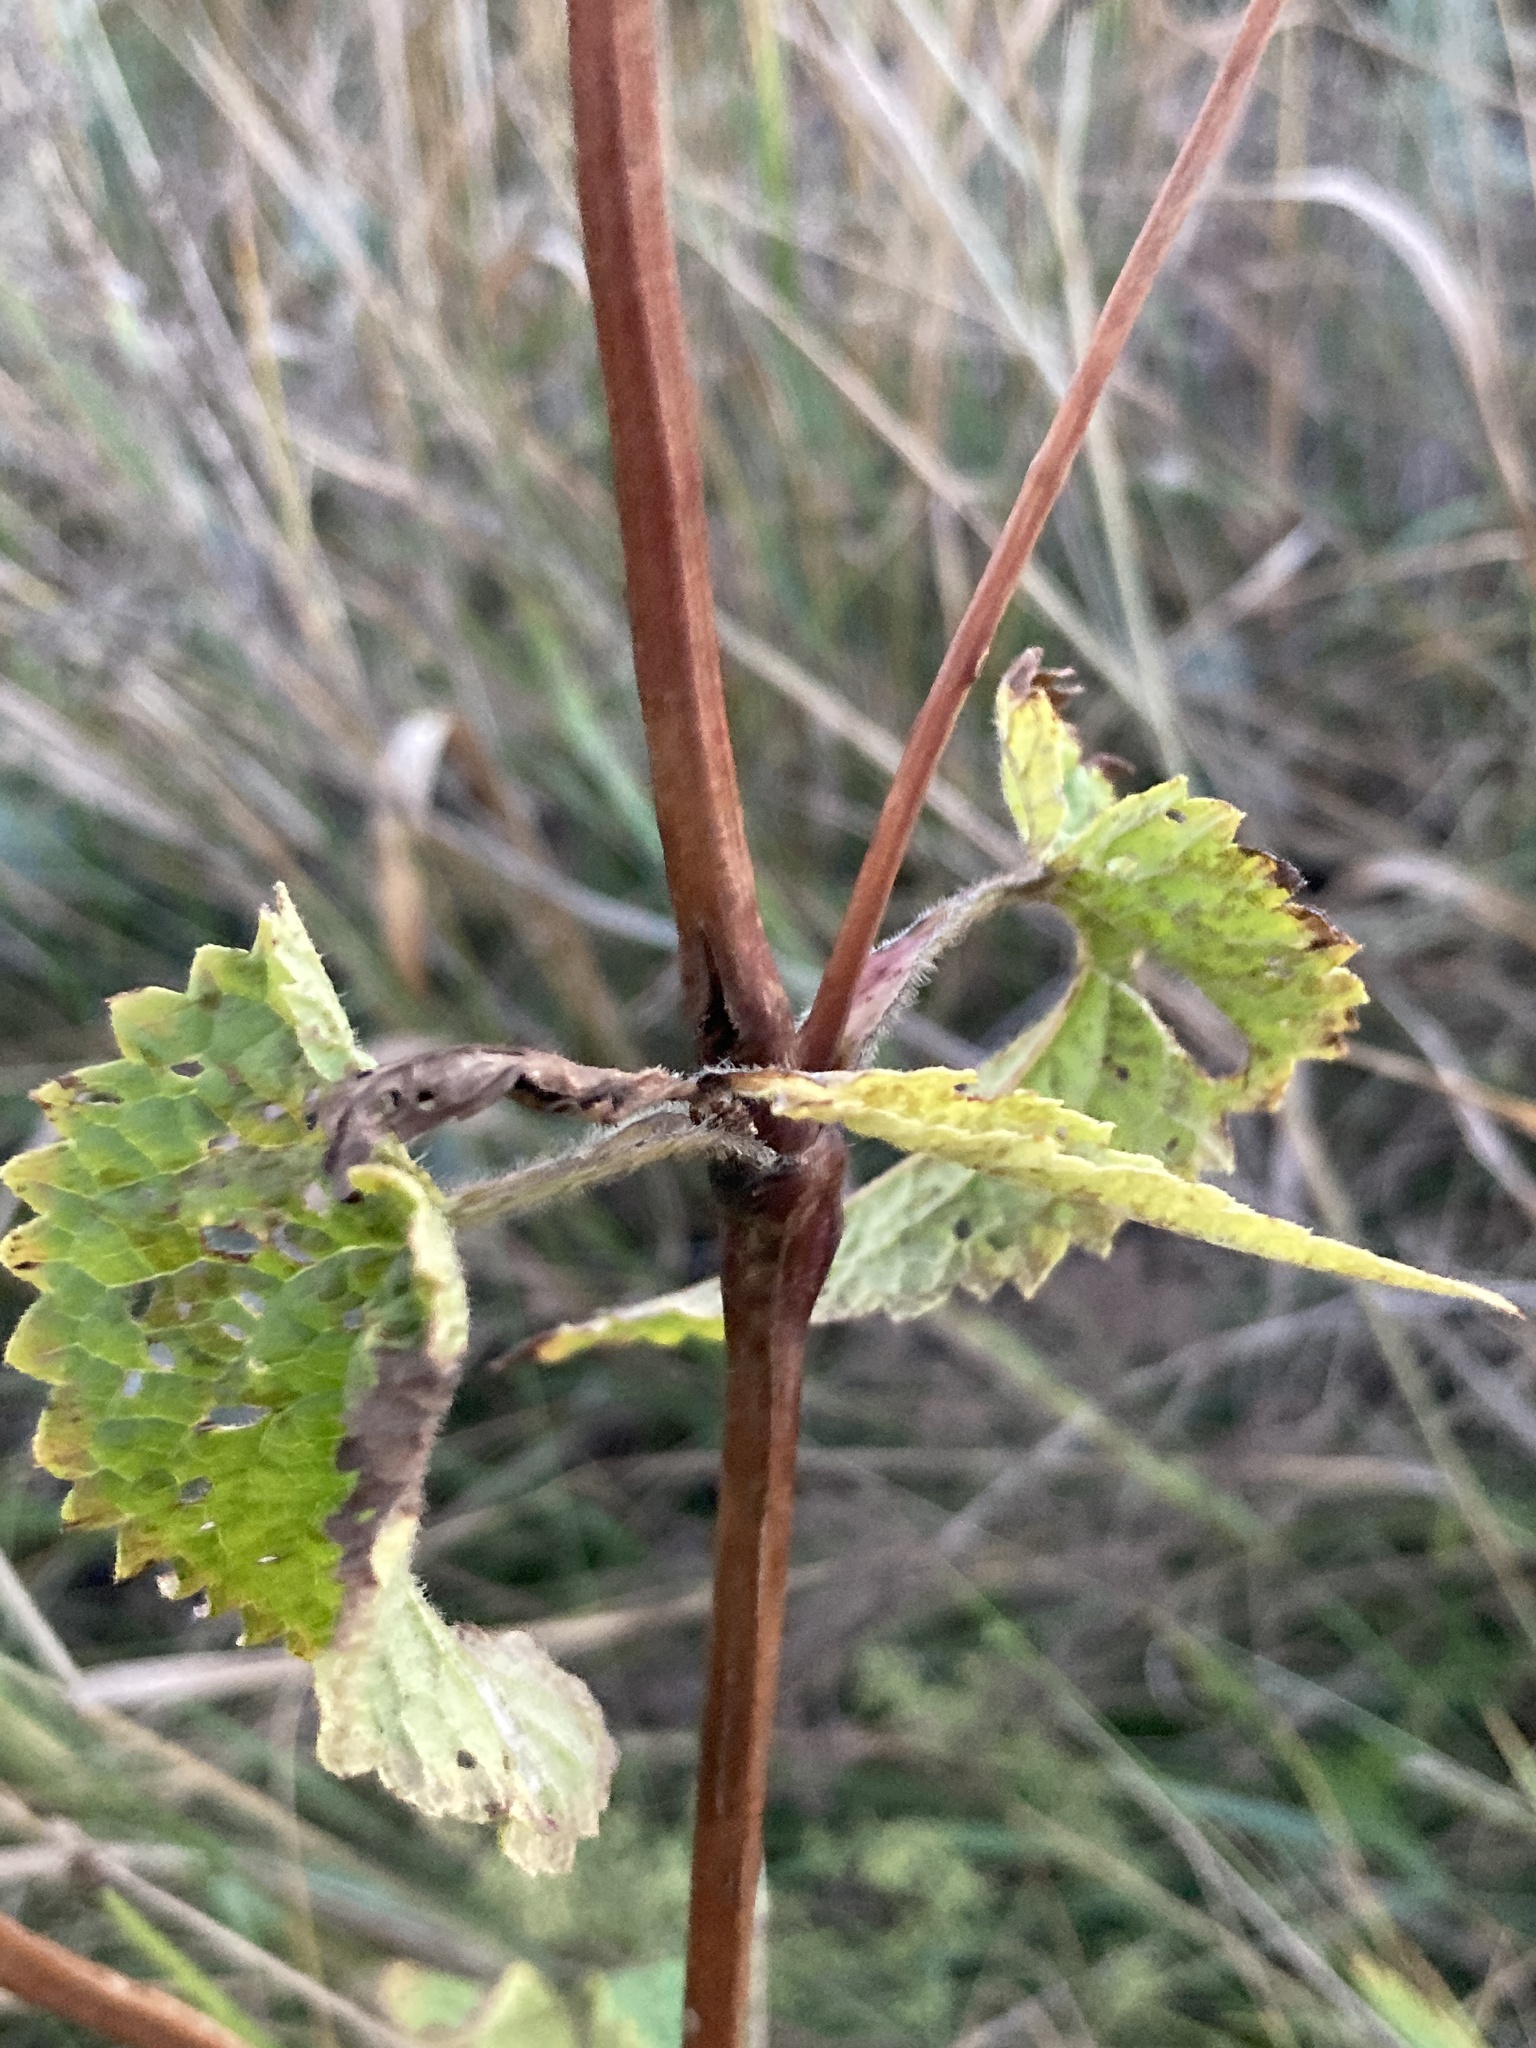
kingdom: Plantae
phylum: Tracheophyta
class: Magnoliopsida
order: Lamiales
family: Lamiaceae
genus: Phlomoides
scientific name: Phlomoides tuberosa
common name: Tuberous jerusalem sage
